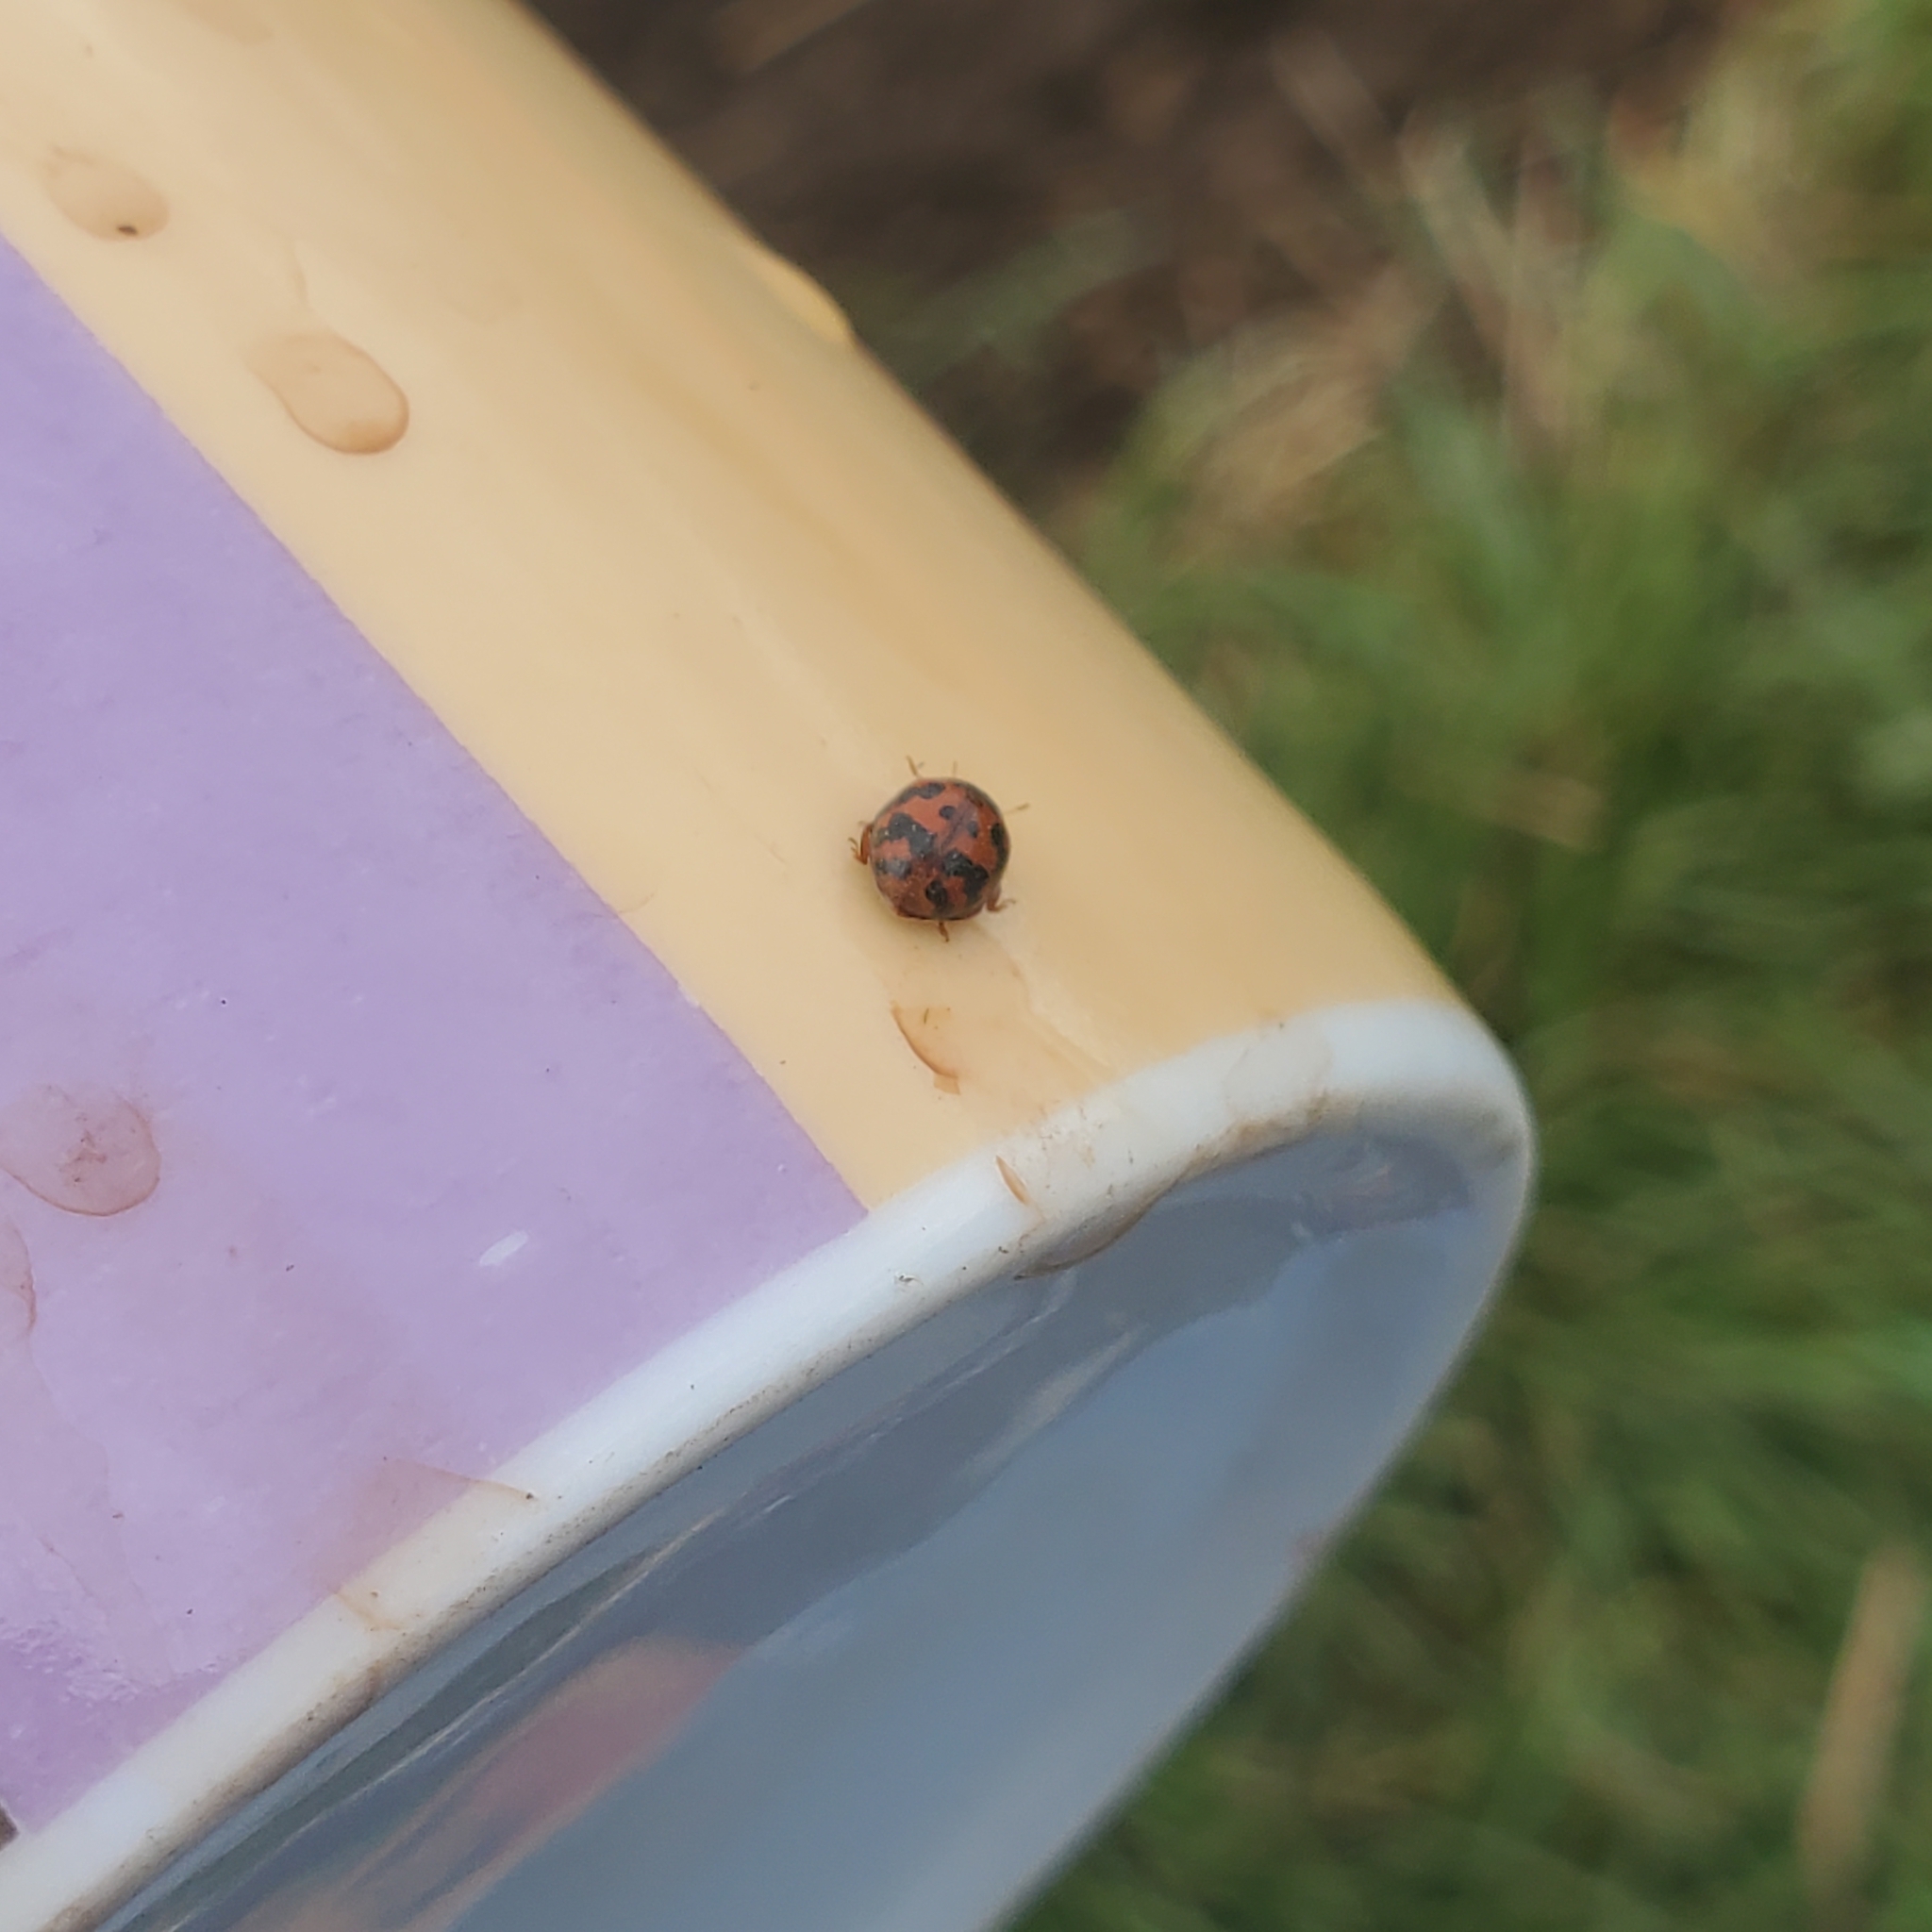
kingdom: Animalia
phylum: Arthropoda
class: Insecta
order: Coleoptera
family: Coccinellidae
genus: Subcoccinella
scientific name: Subcoccinella vigintiquatuorpunctata
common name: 24-spot ladybird
